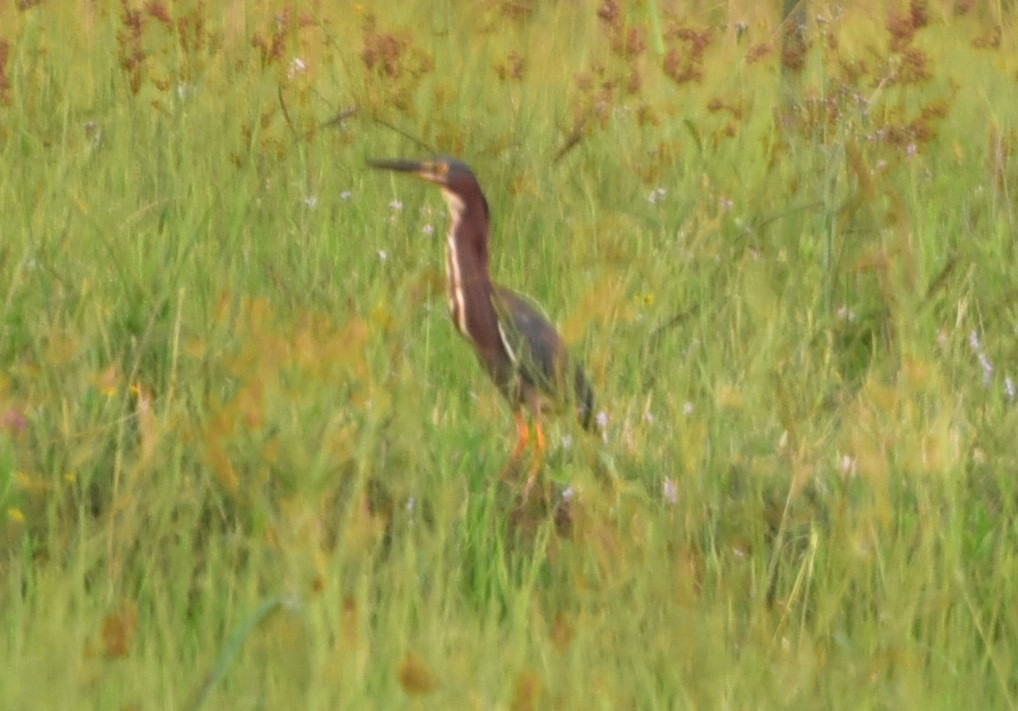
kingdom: Animalia
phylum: Chordata
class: Aves
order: Pelecaniformes
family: Ardeidae
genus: Butorides
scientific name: Butorides virescens
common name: Green heron
